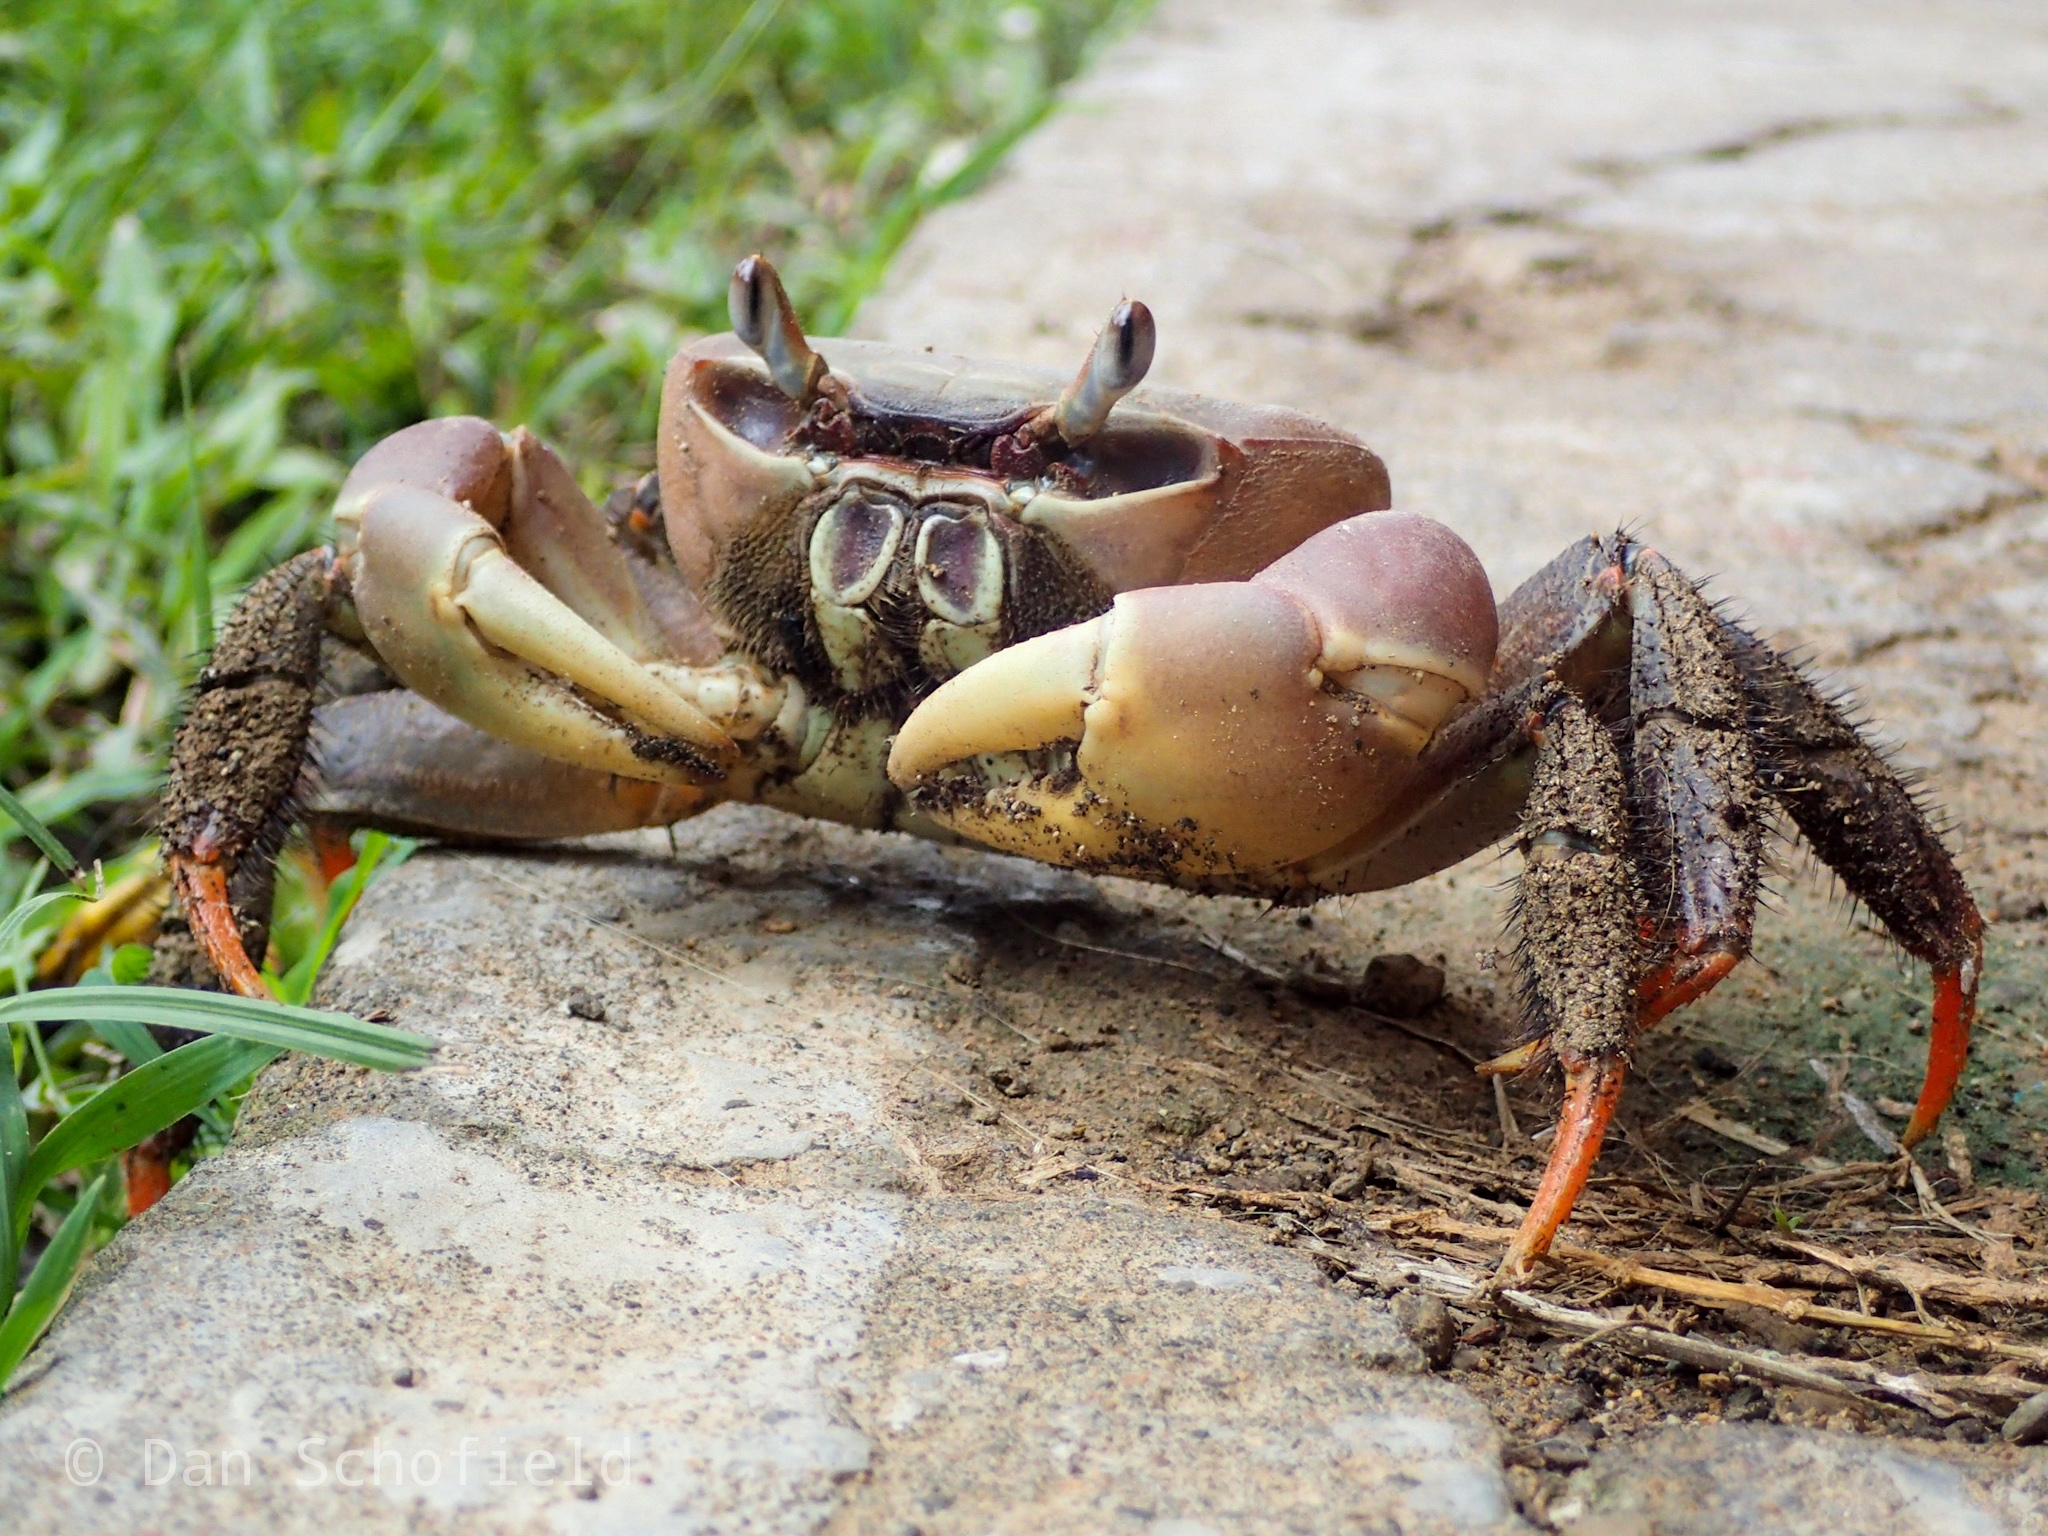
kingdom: Animalia
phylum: Arthropoda
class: Malacostraca
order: Decapoda
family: Gecarcinidae
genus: Cardisoma
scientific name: Cardisoma carnifex
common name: Brown land crab
